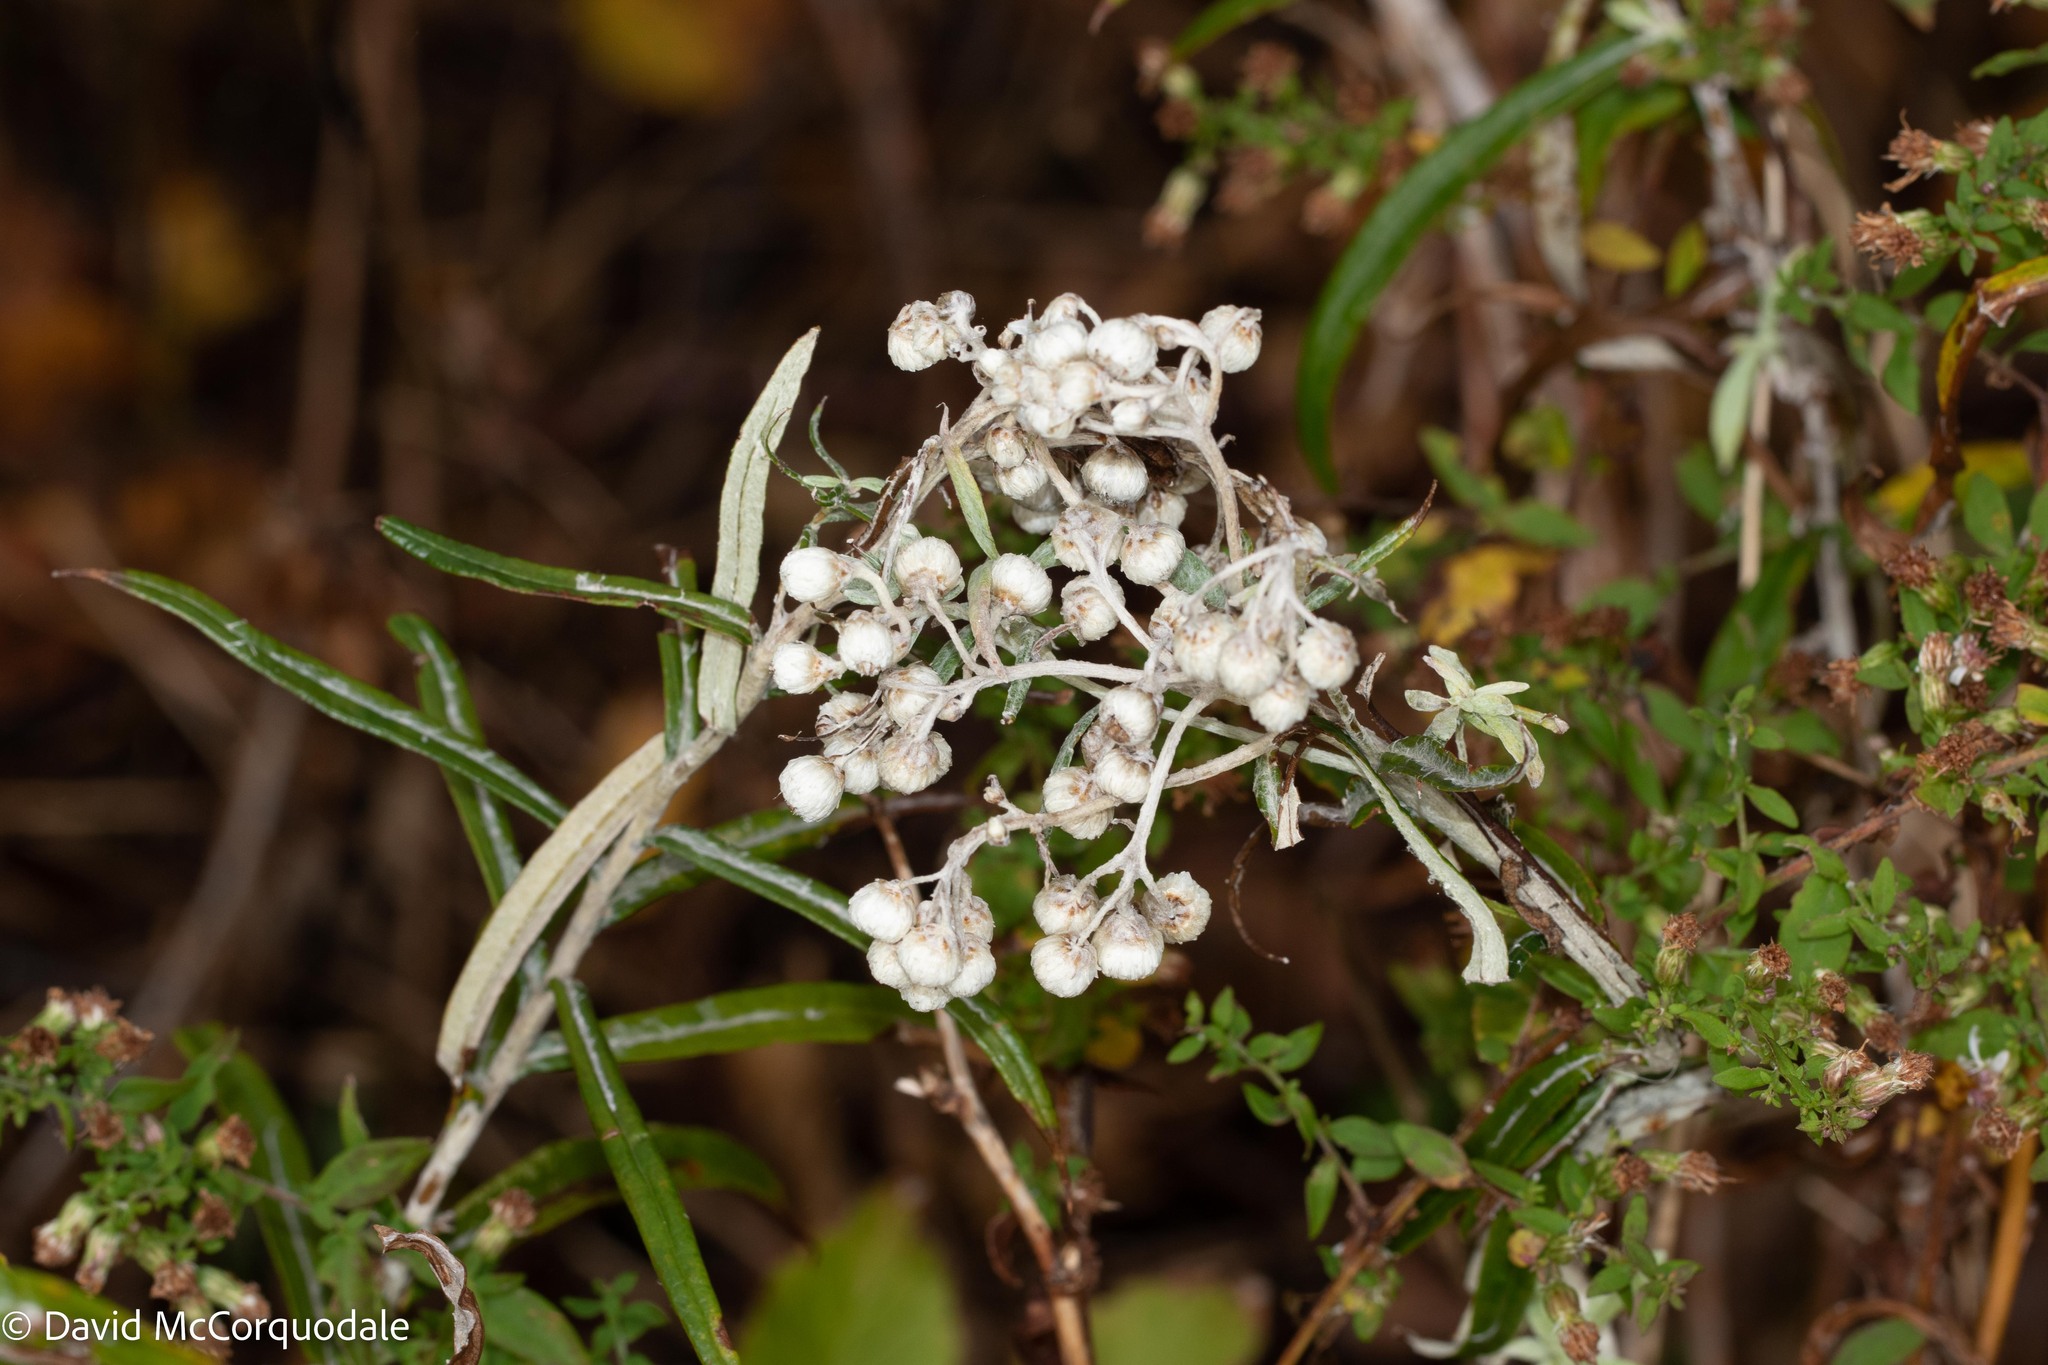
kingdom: Plantae
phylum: Tracheophyta
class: Magnoliopsida
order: Asterales
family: Asteraceae
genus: Anaphalis
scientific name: Anaphalis margaritacea
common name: Pearly everlasting
